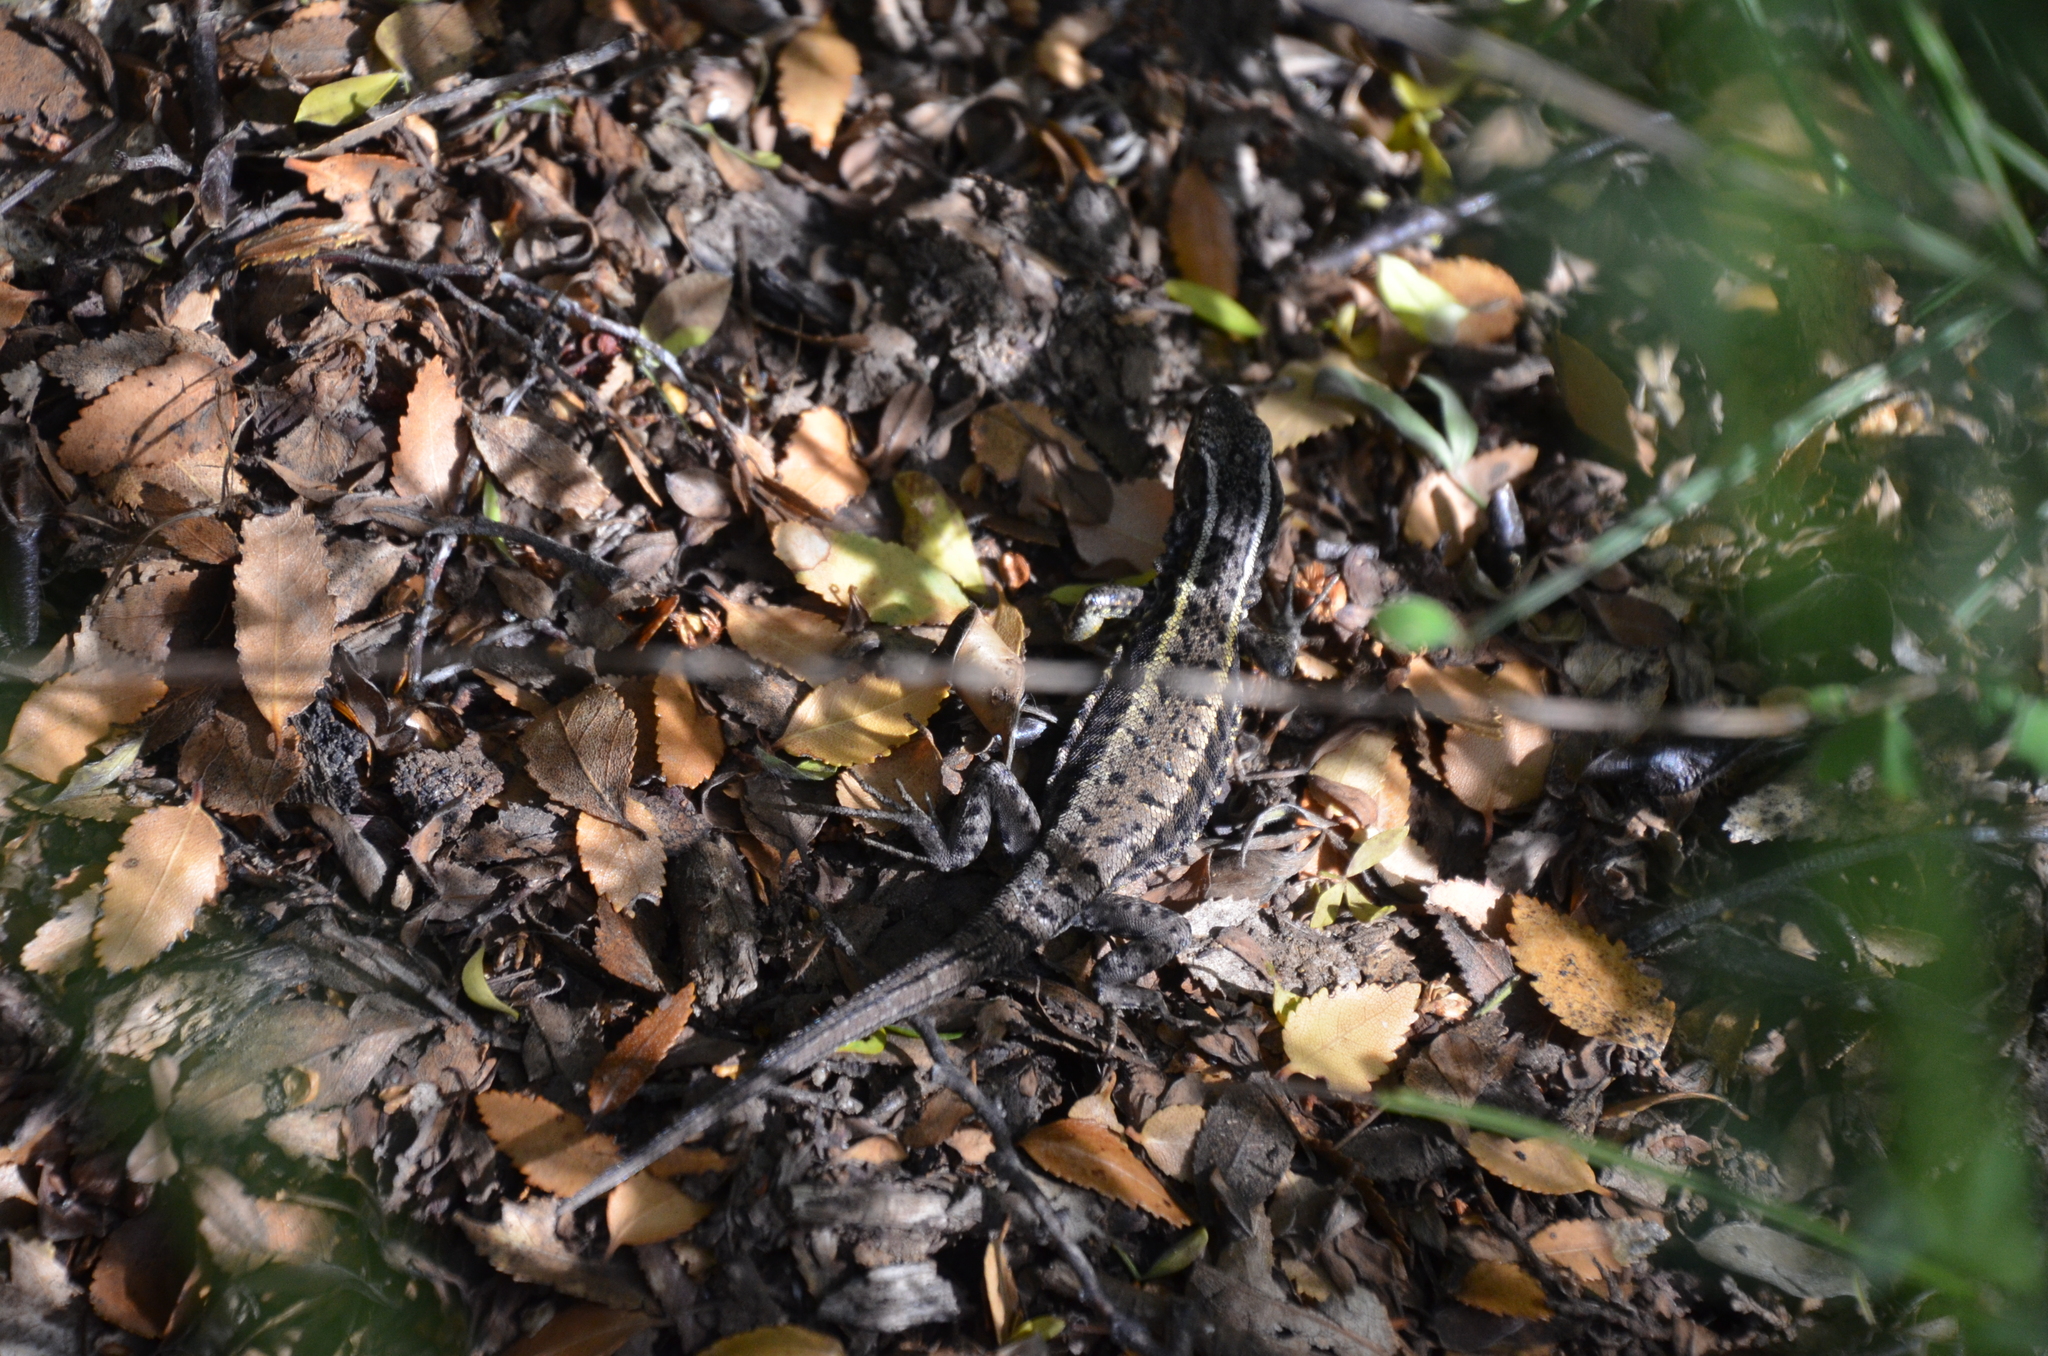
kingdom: Animalia
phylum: Chordata
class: Squamata
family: Liolaemidae
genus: Liolaemus
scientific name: Liolaemus pictus
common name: Painted tree iguana
